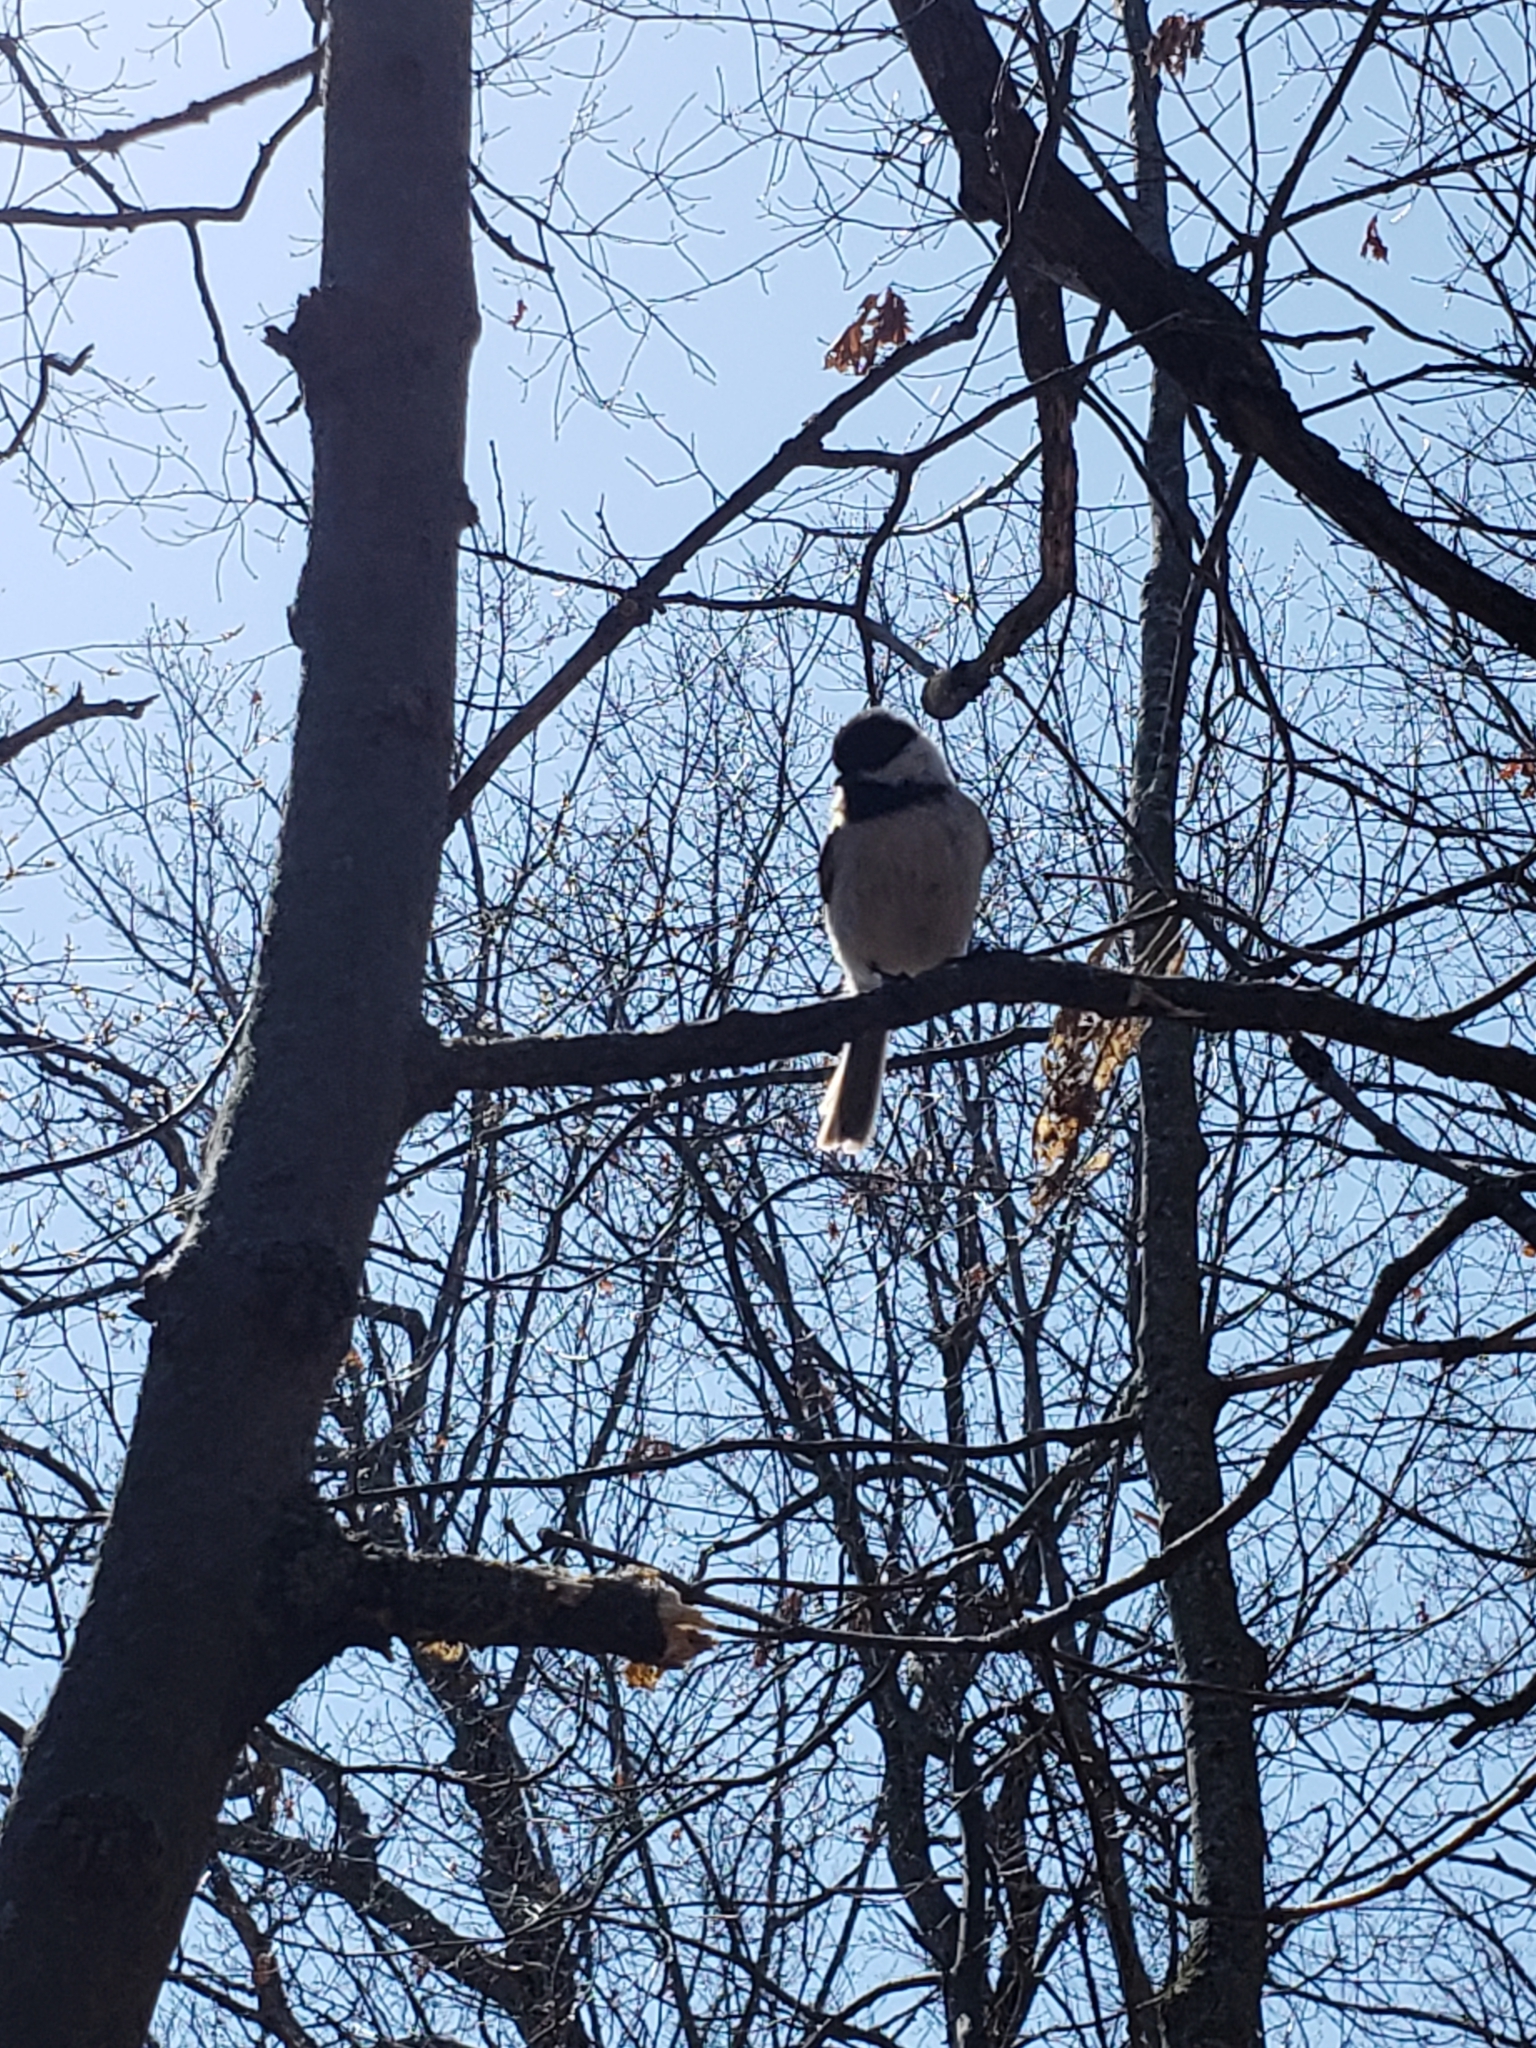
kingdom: Animalia
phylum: Chordata
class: Aves
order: Passeriformes
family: Paridae
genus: Poecile
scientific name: Poecile atricapillus
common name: Black-capped chickadee
